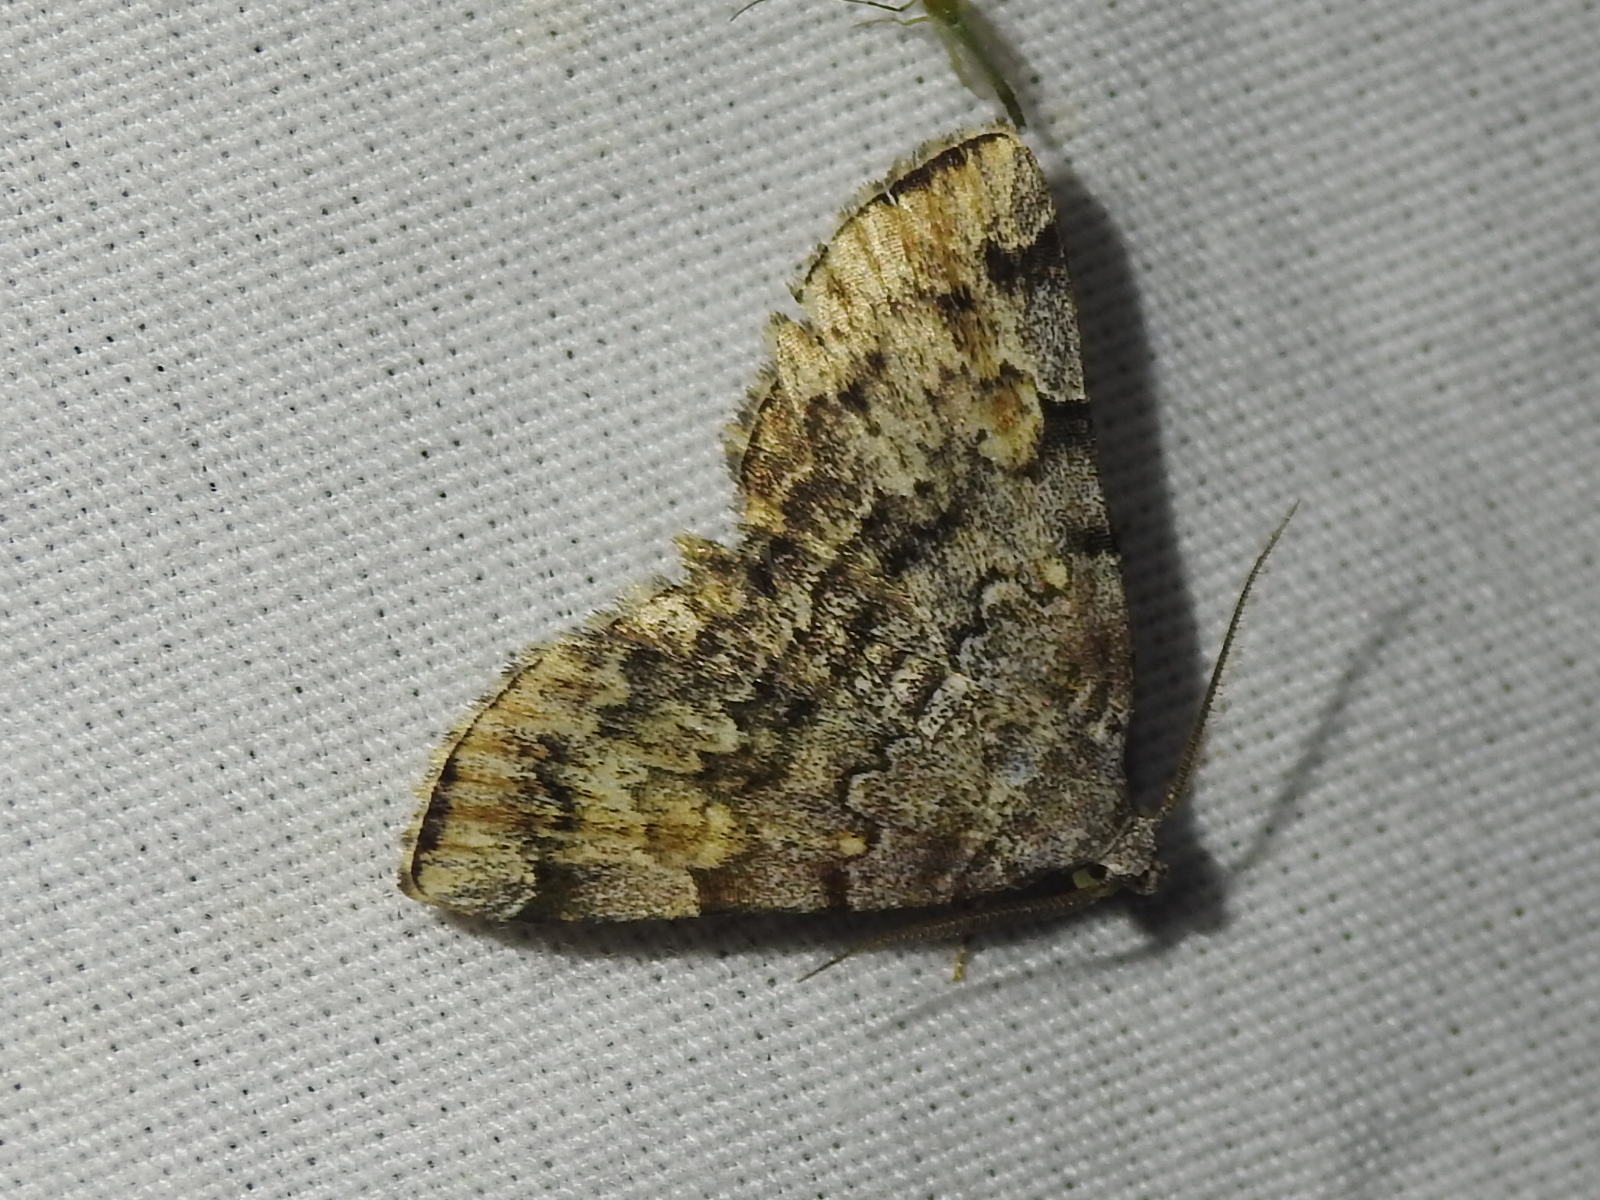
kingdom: Animalia
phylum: Arthropoda
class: Insecta
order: Lepidoptera
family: Erebidae
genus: Idia
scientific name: Idia americalis
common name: American idia moth
